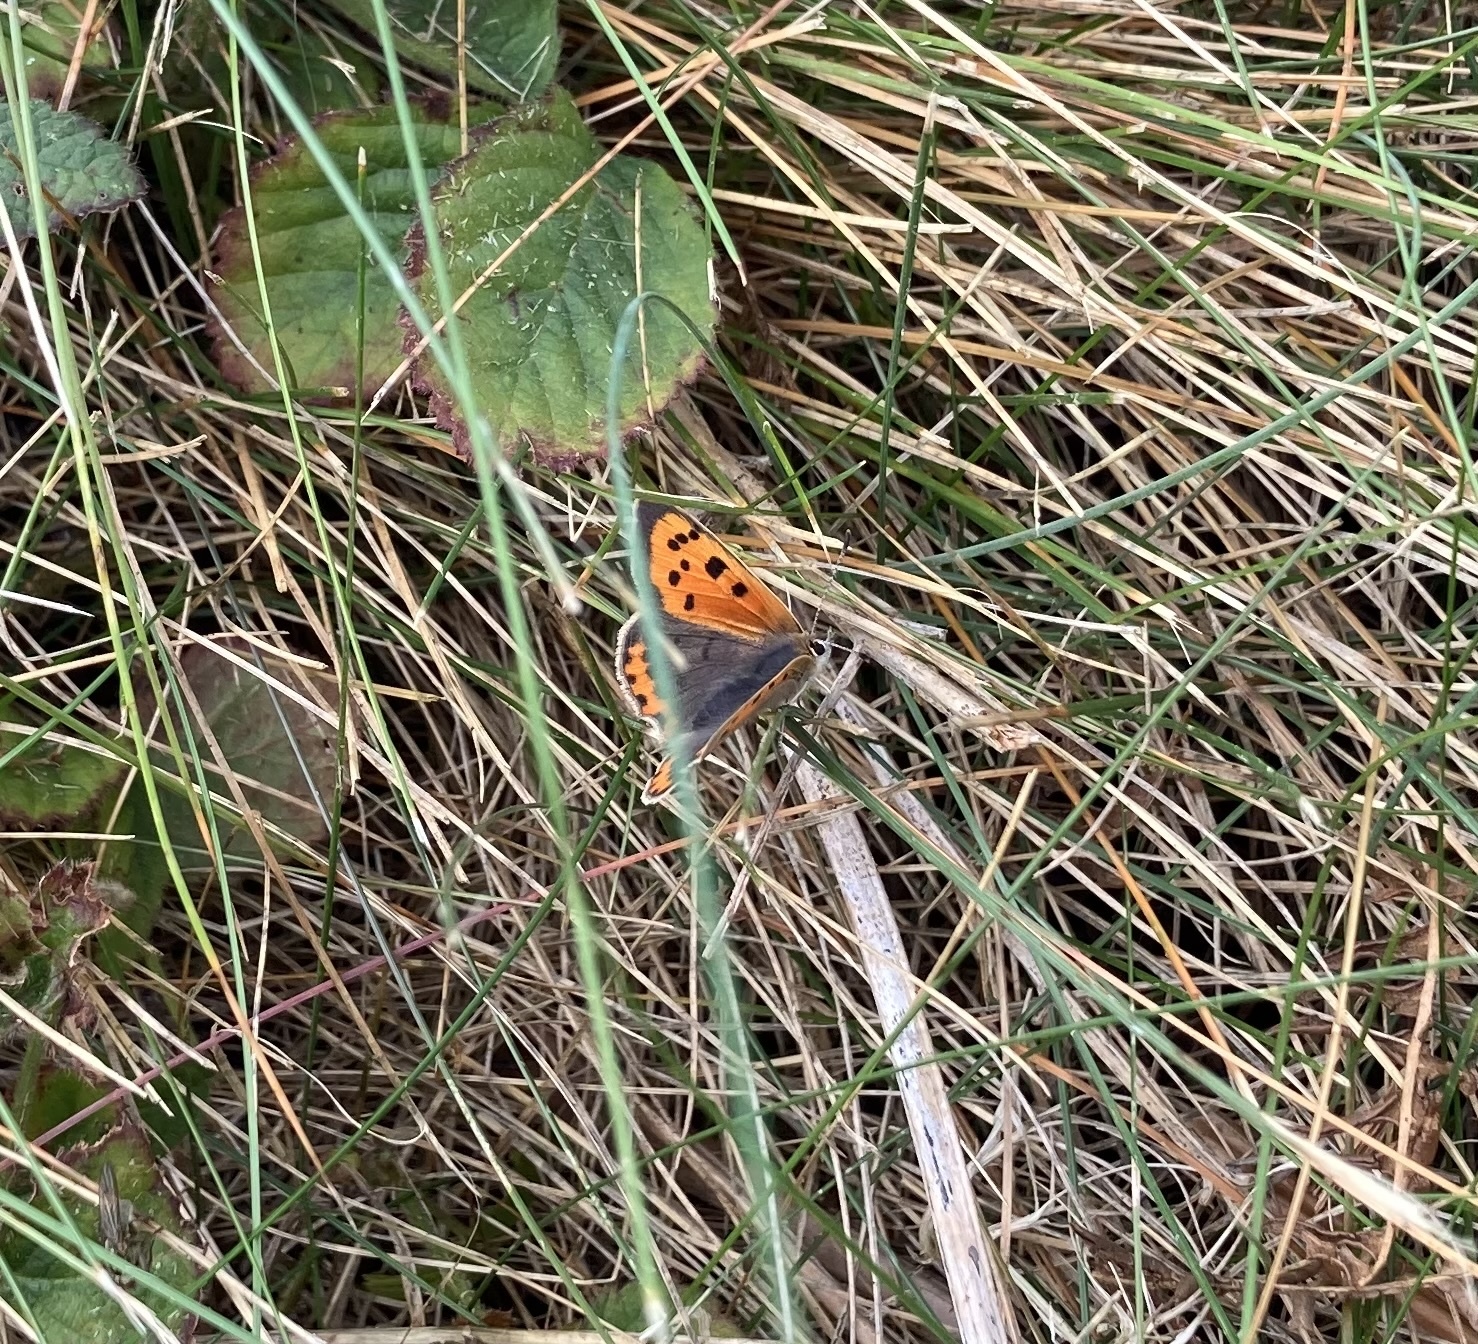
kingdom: Animalia
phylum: Arthropoda
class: Insecta
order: Lepidoptera
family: Lycaenidae
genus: Lycaena
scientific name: Lycaena phlaeas
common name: Small copper
